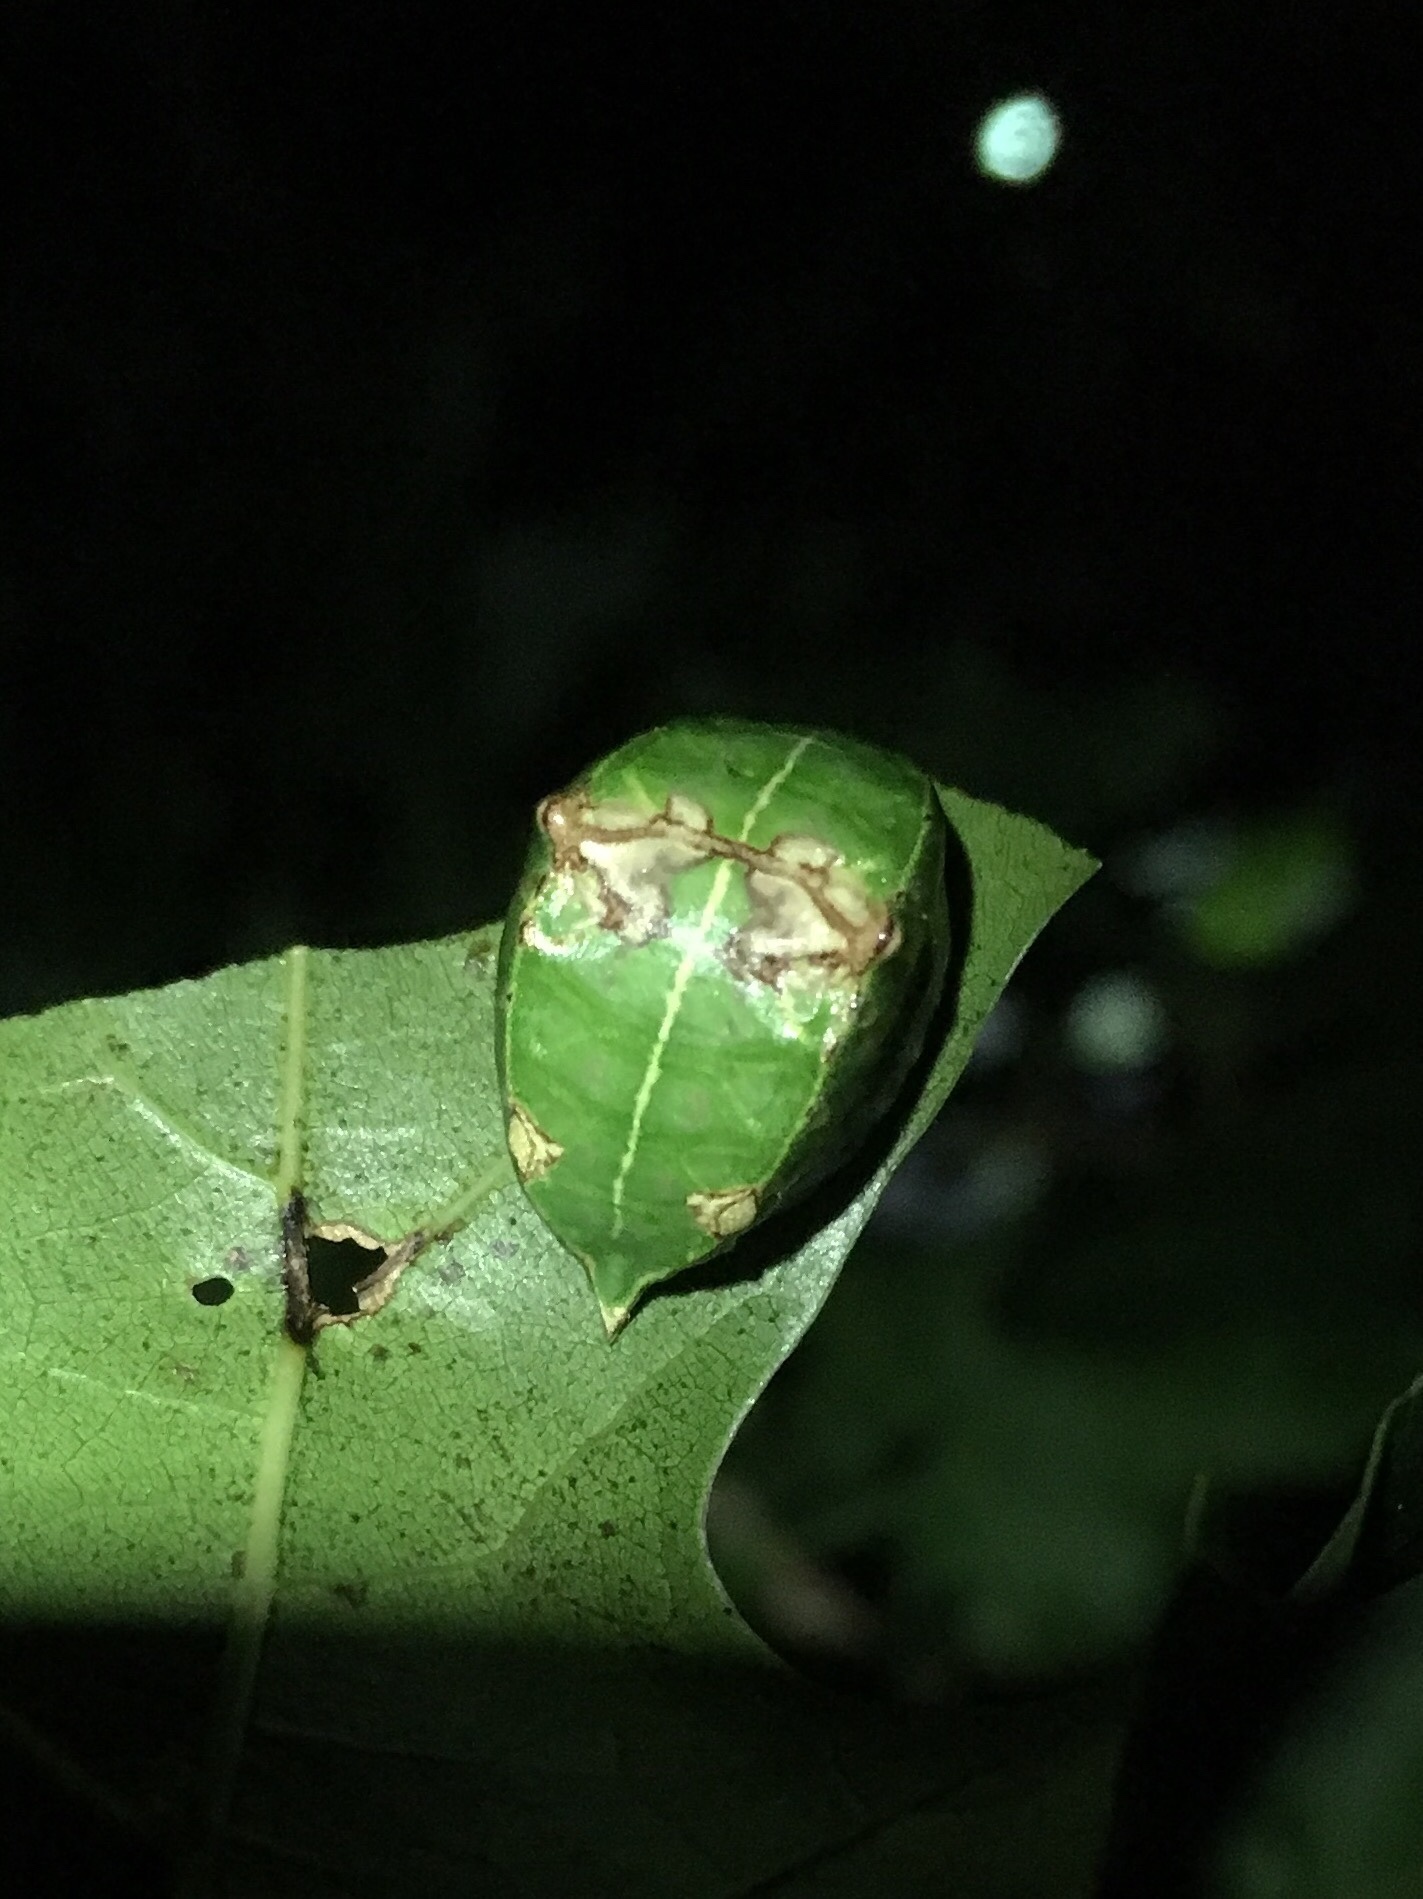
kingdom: Animalia
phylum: Arthropoda
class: Insecta
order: Lepidoptera
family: Limacodidae
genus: Prolimacodes
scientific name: Prolimacodes badia
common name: Skiff moth
